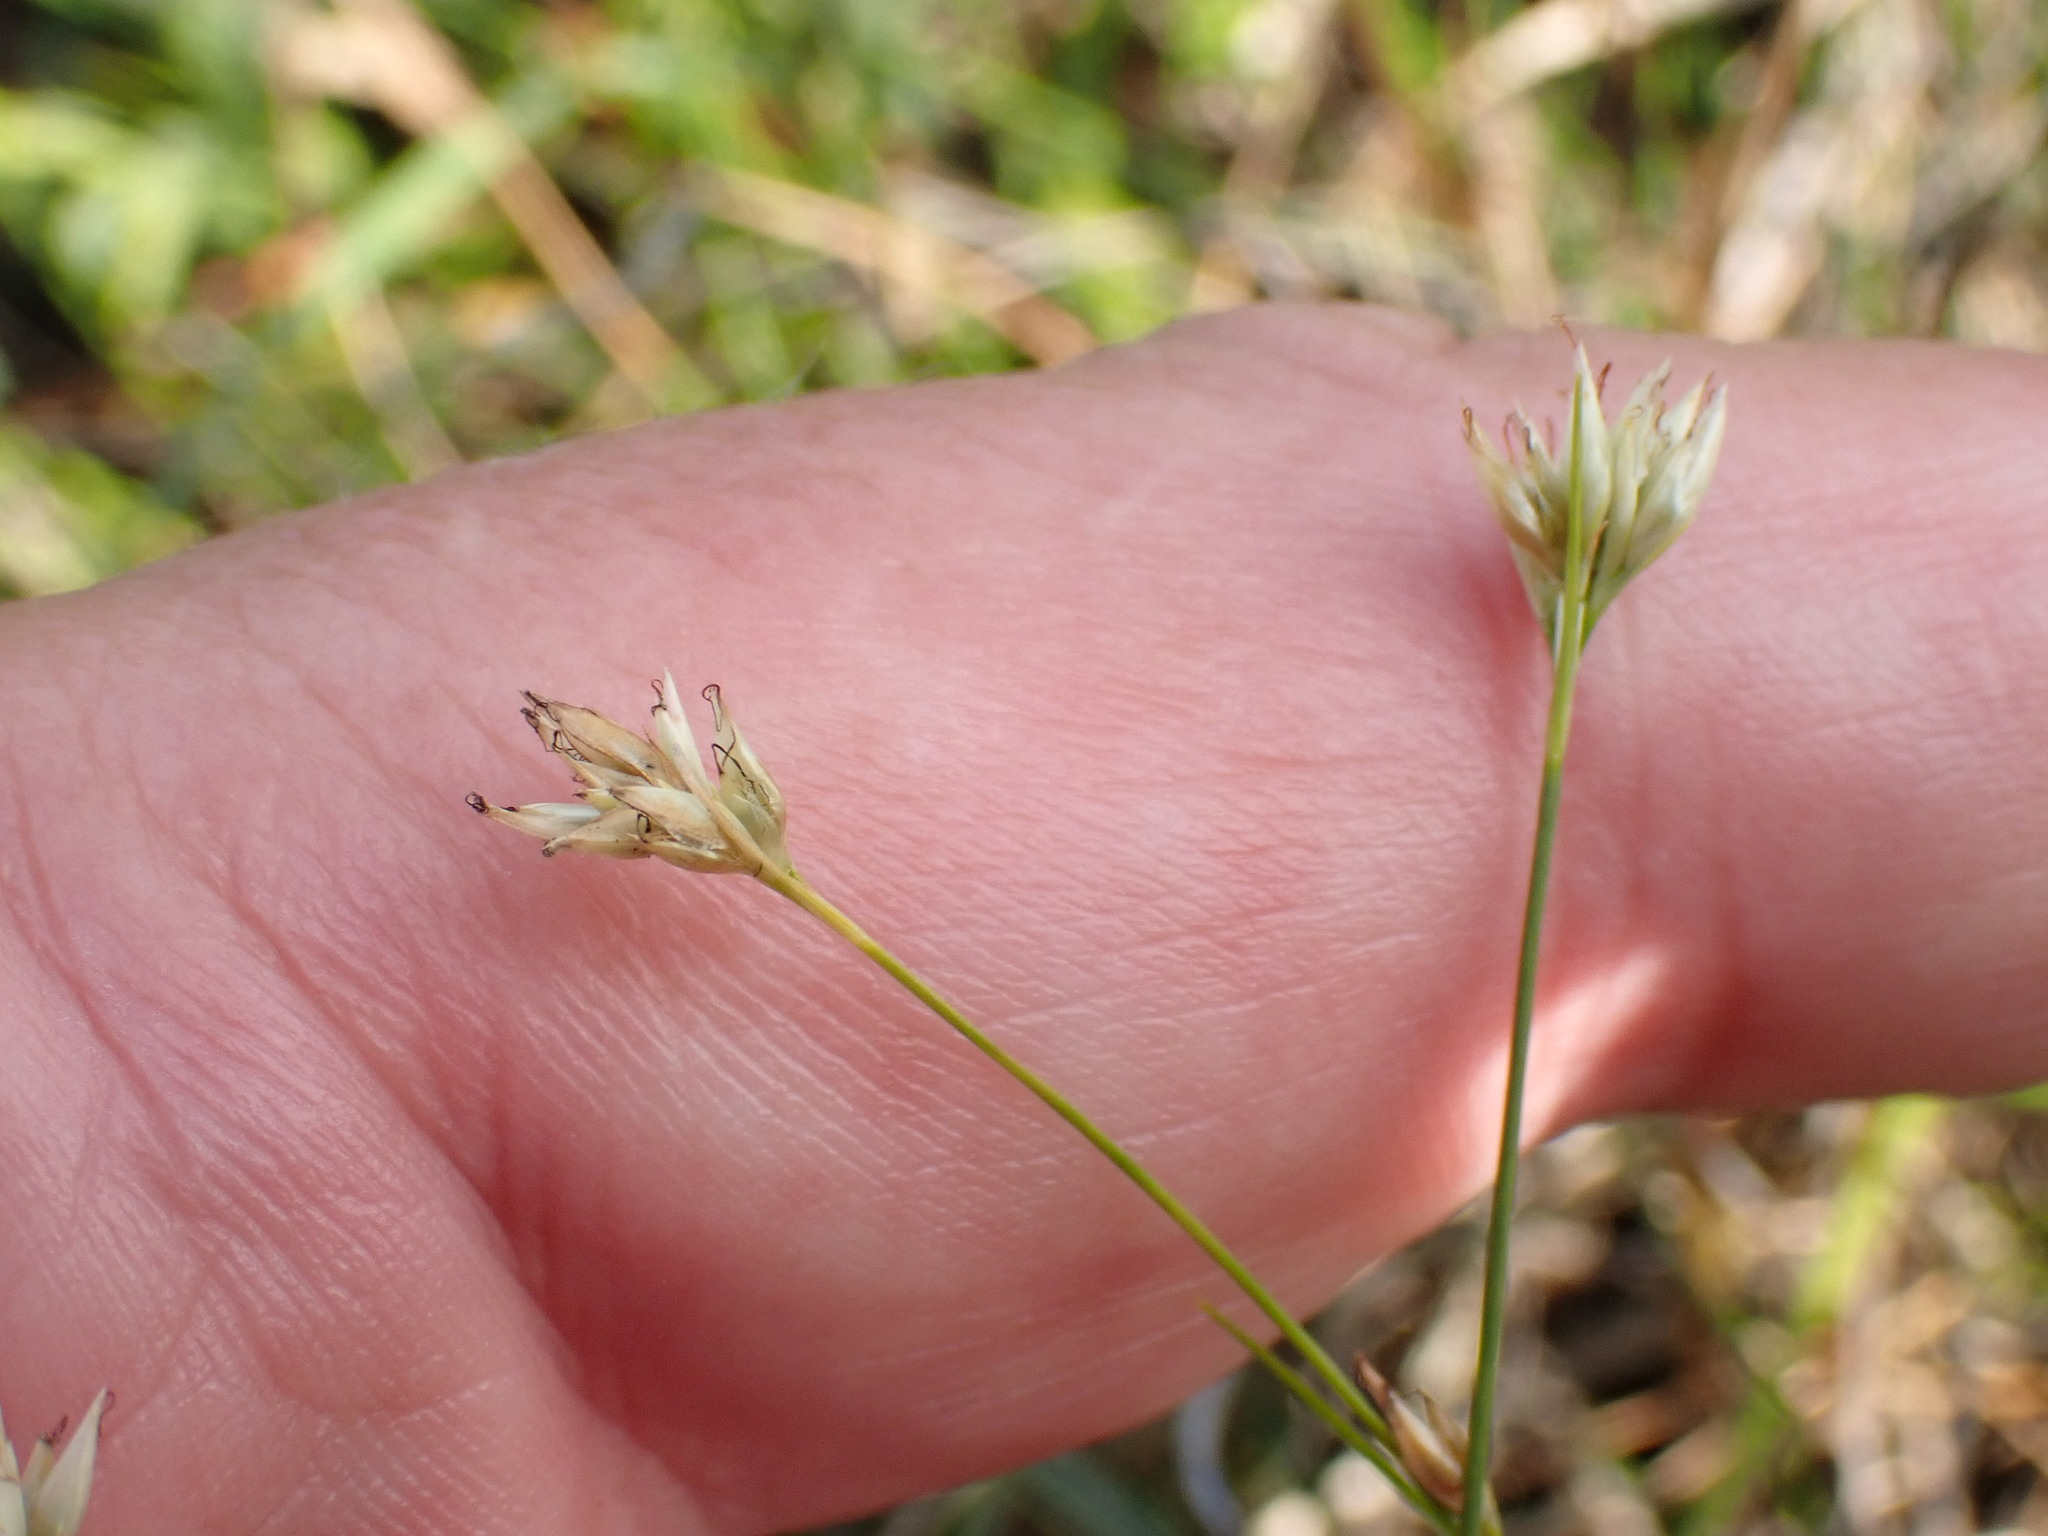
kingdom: Plantae
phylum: Tracheophyta
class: Liliopsida
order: Poales
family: Cyperaceae
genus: Rhynchospora
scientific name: Rhynchospora alba
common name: White beak-sedge
